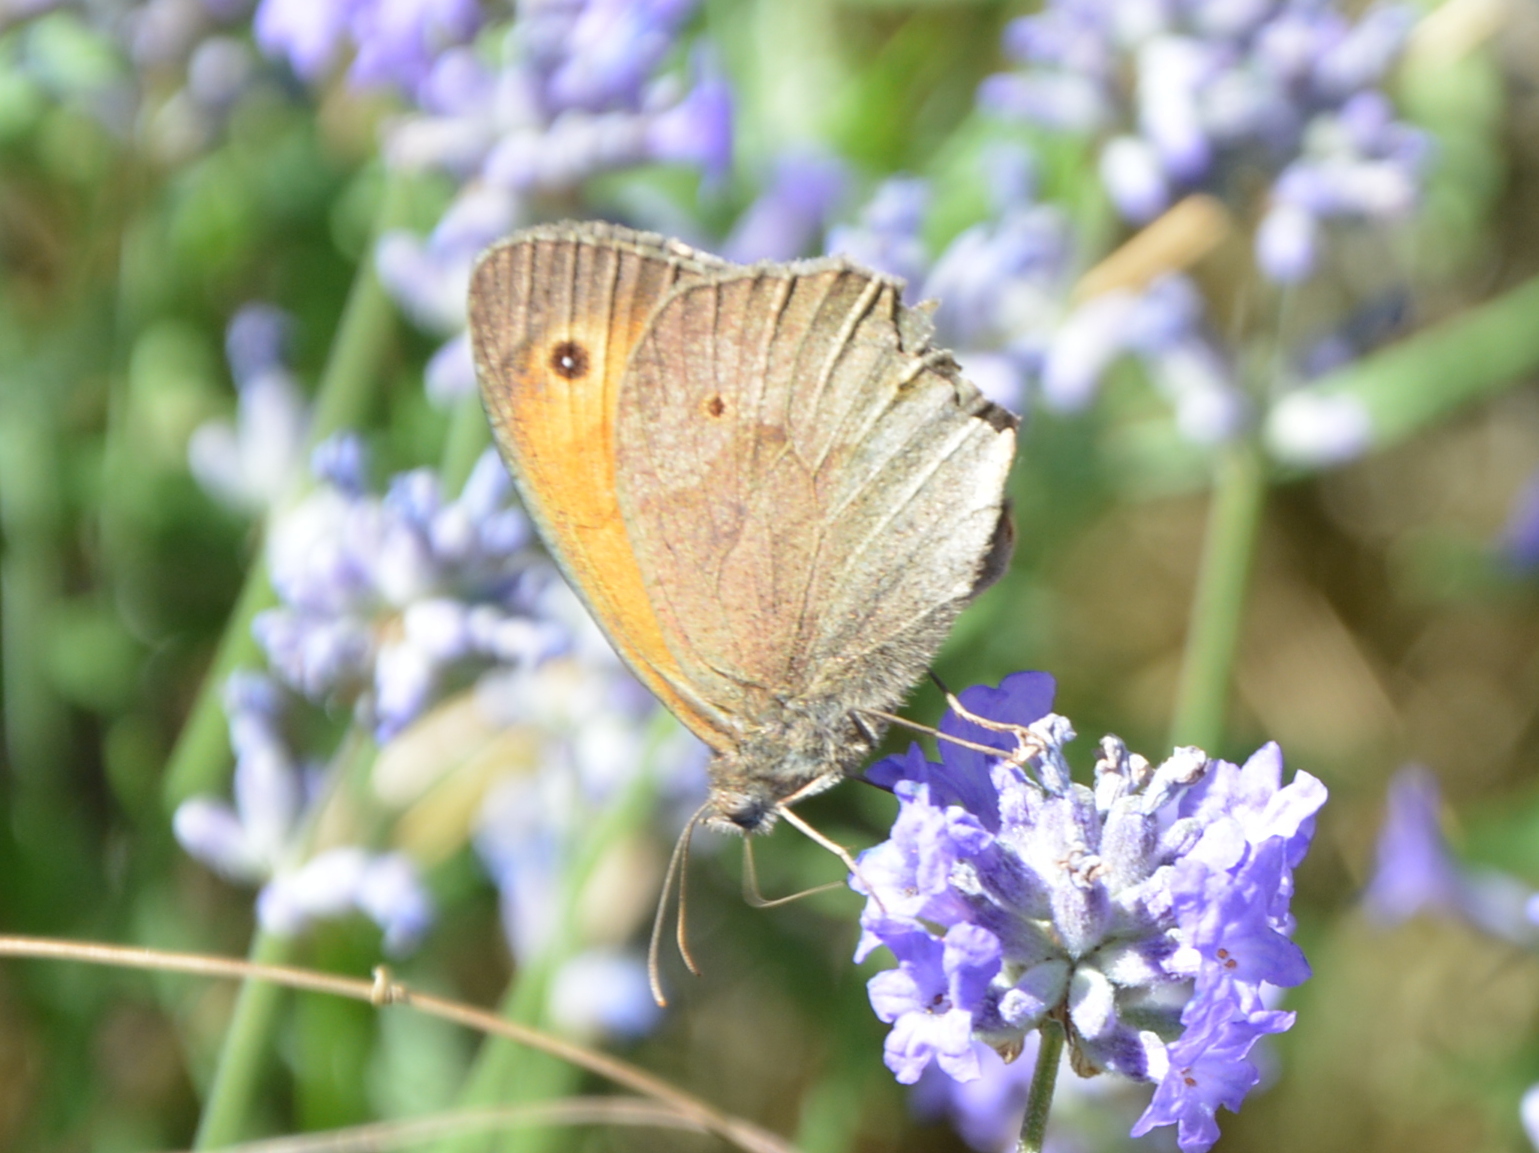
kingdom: Animalia
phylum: Arthropoda
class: Insecta
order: Lepidoptera
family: Nymphalidae
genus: Maniola
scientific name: Maniola jurtina
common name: Meadow brown
